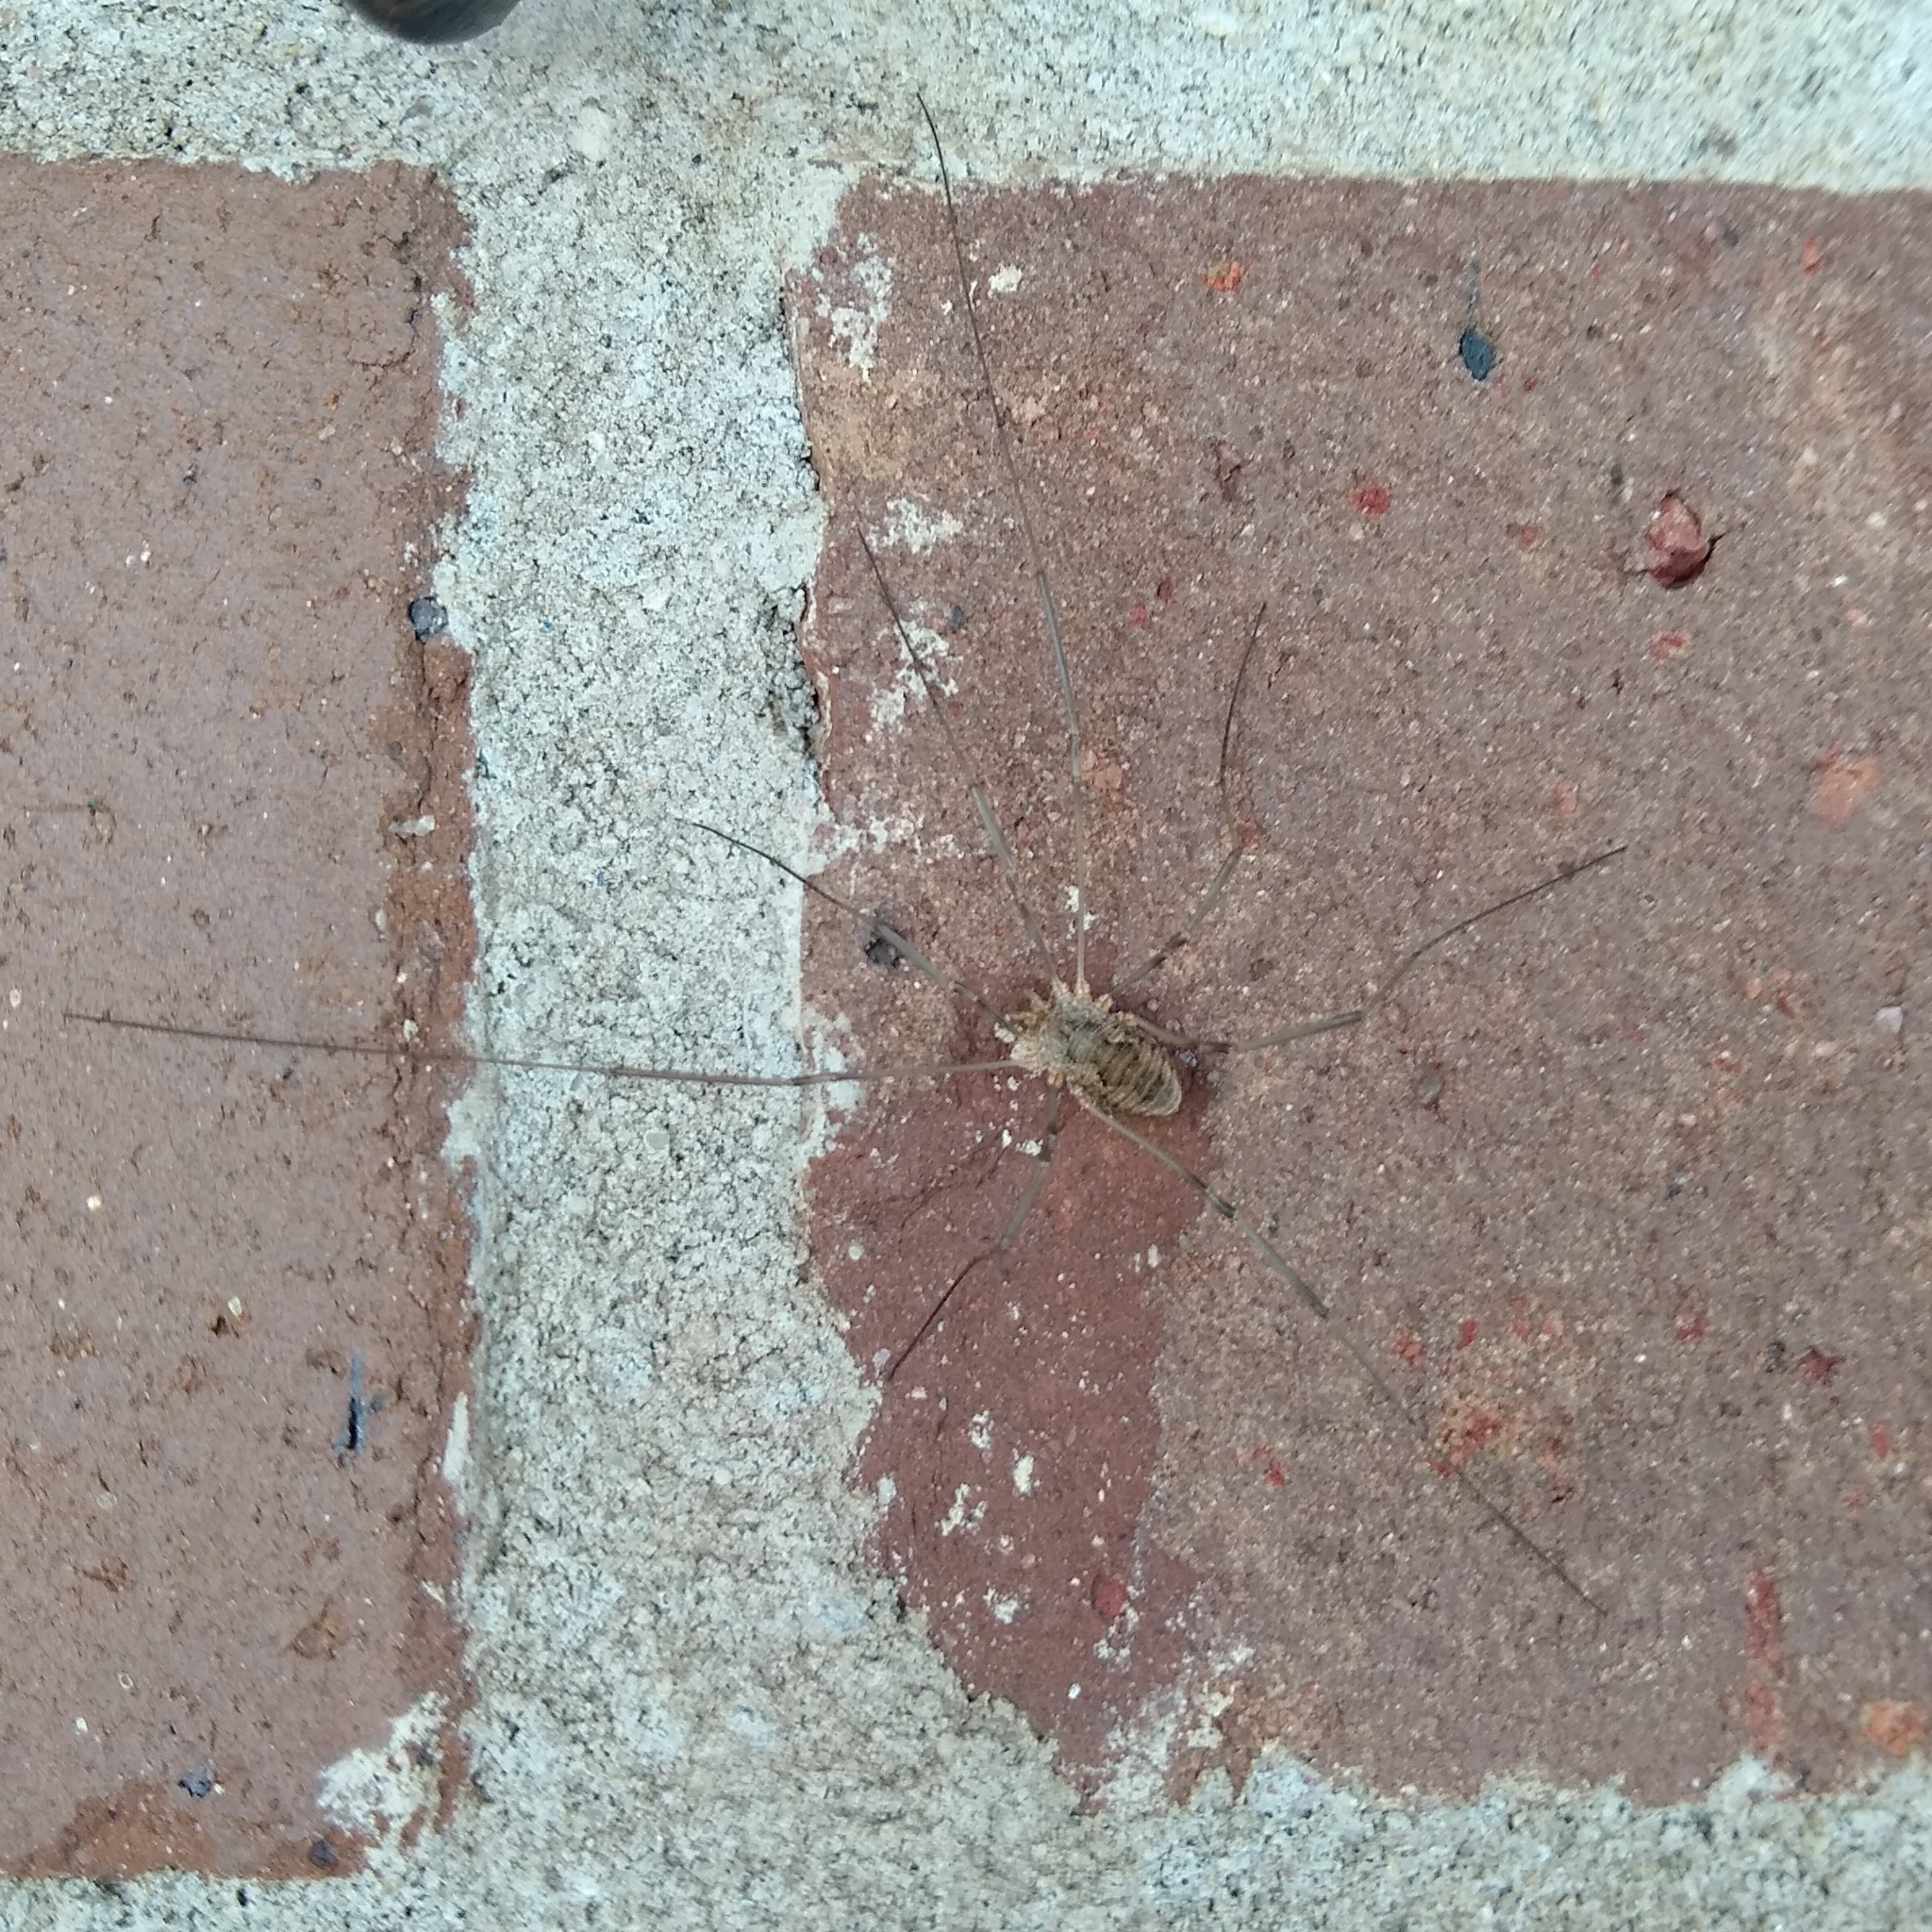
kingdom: Animalia
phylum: Arthropoda
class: Arachnida
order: Opiliones
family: Phalangiidae
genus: Phalangium
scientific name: Phalangium opilio
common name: Daddy longleg
